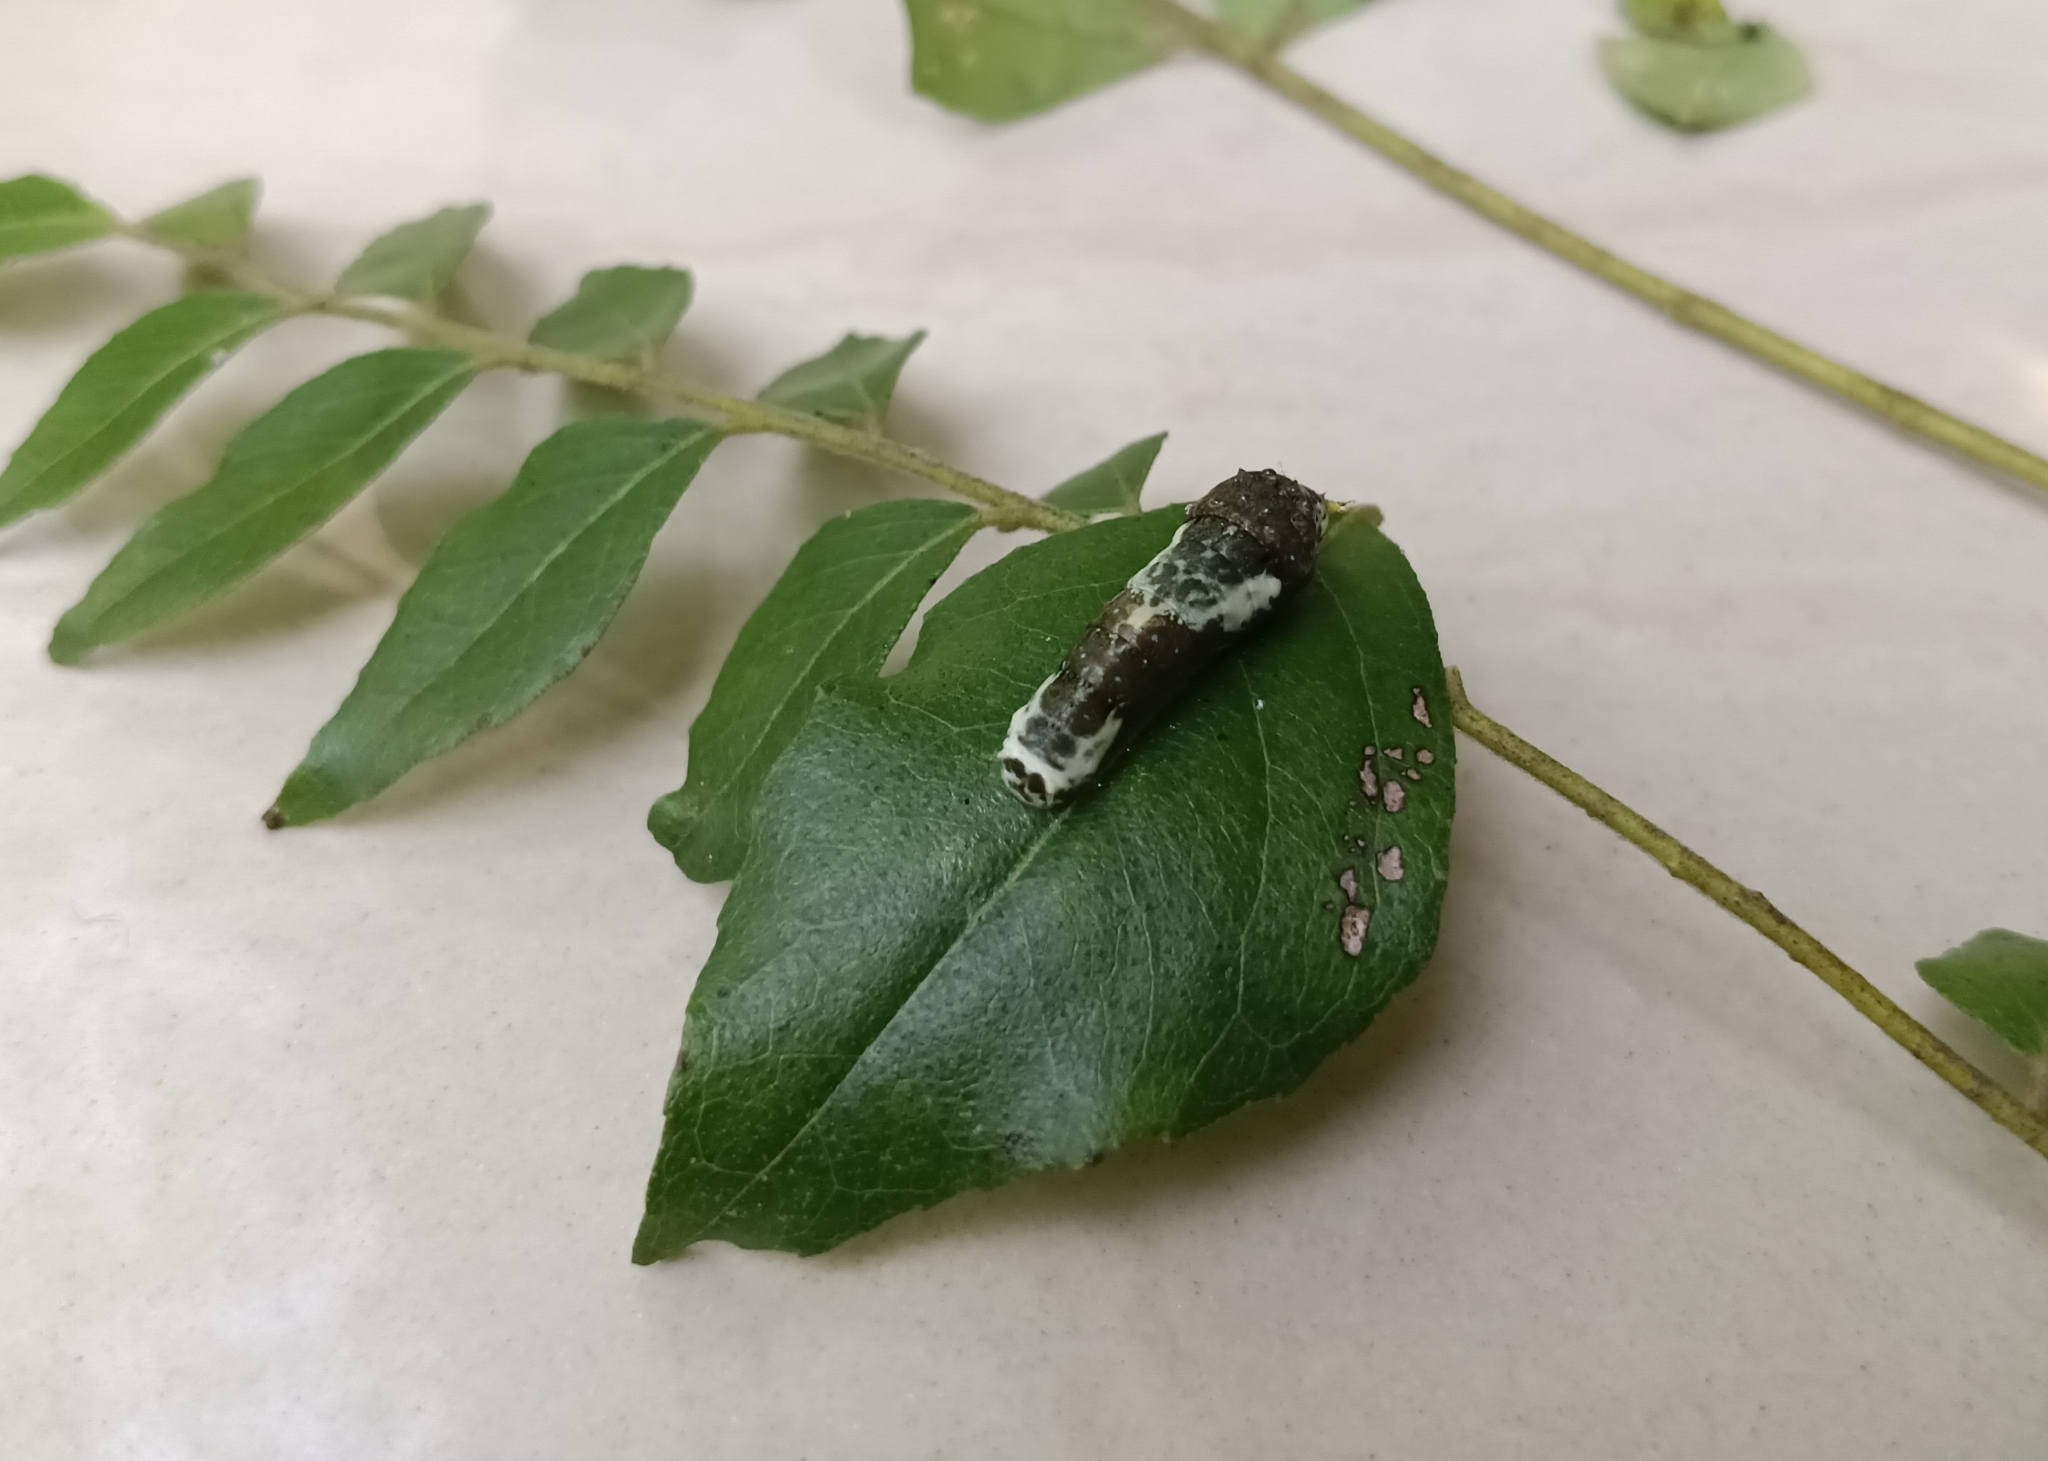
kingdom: Animalia
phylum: Arthropoda
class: Insecta
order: Lepidoptera
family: Papilionidae
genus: Papilio
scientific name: Papilio polytes
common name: Common mormon
